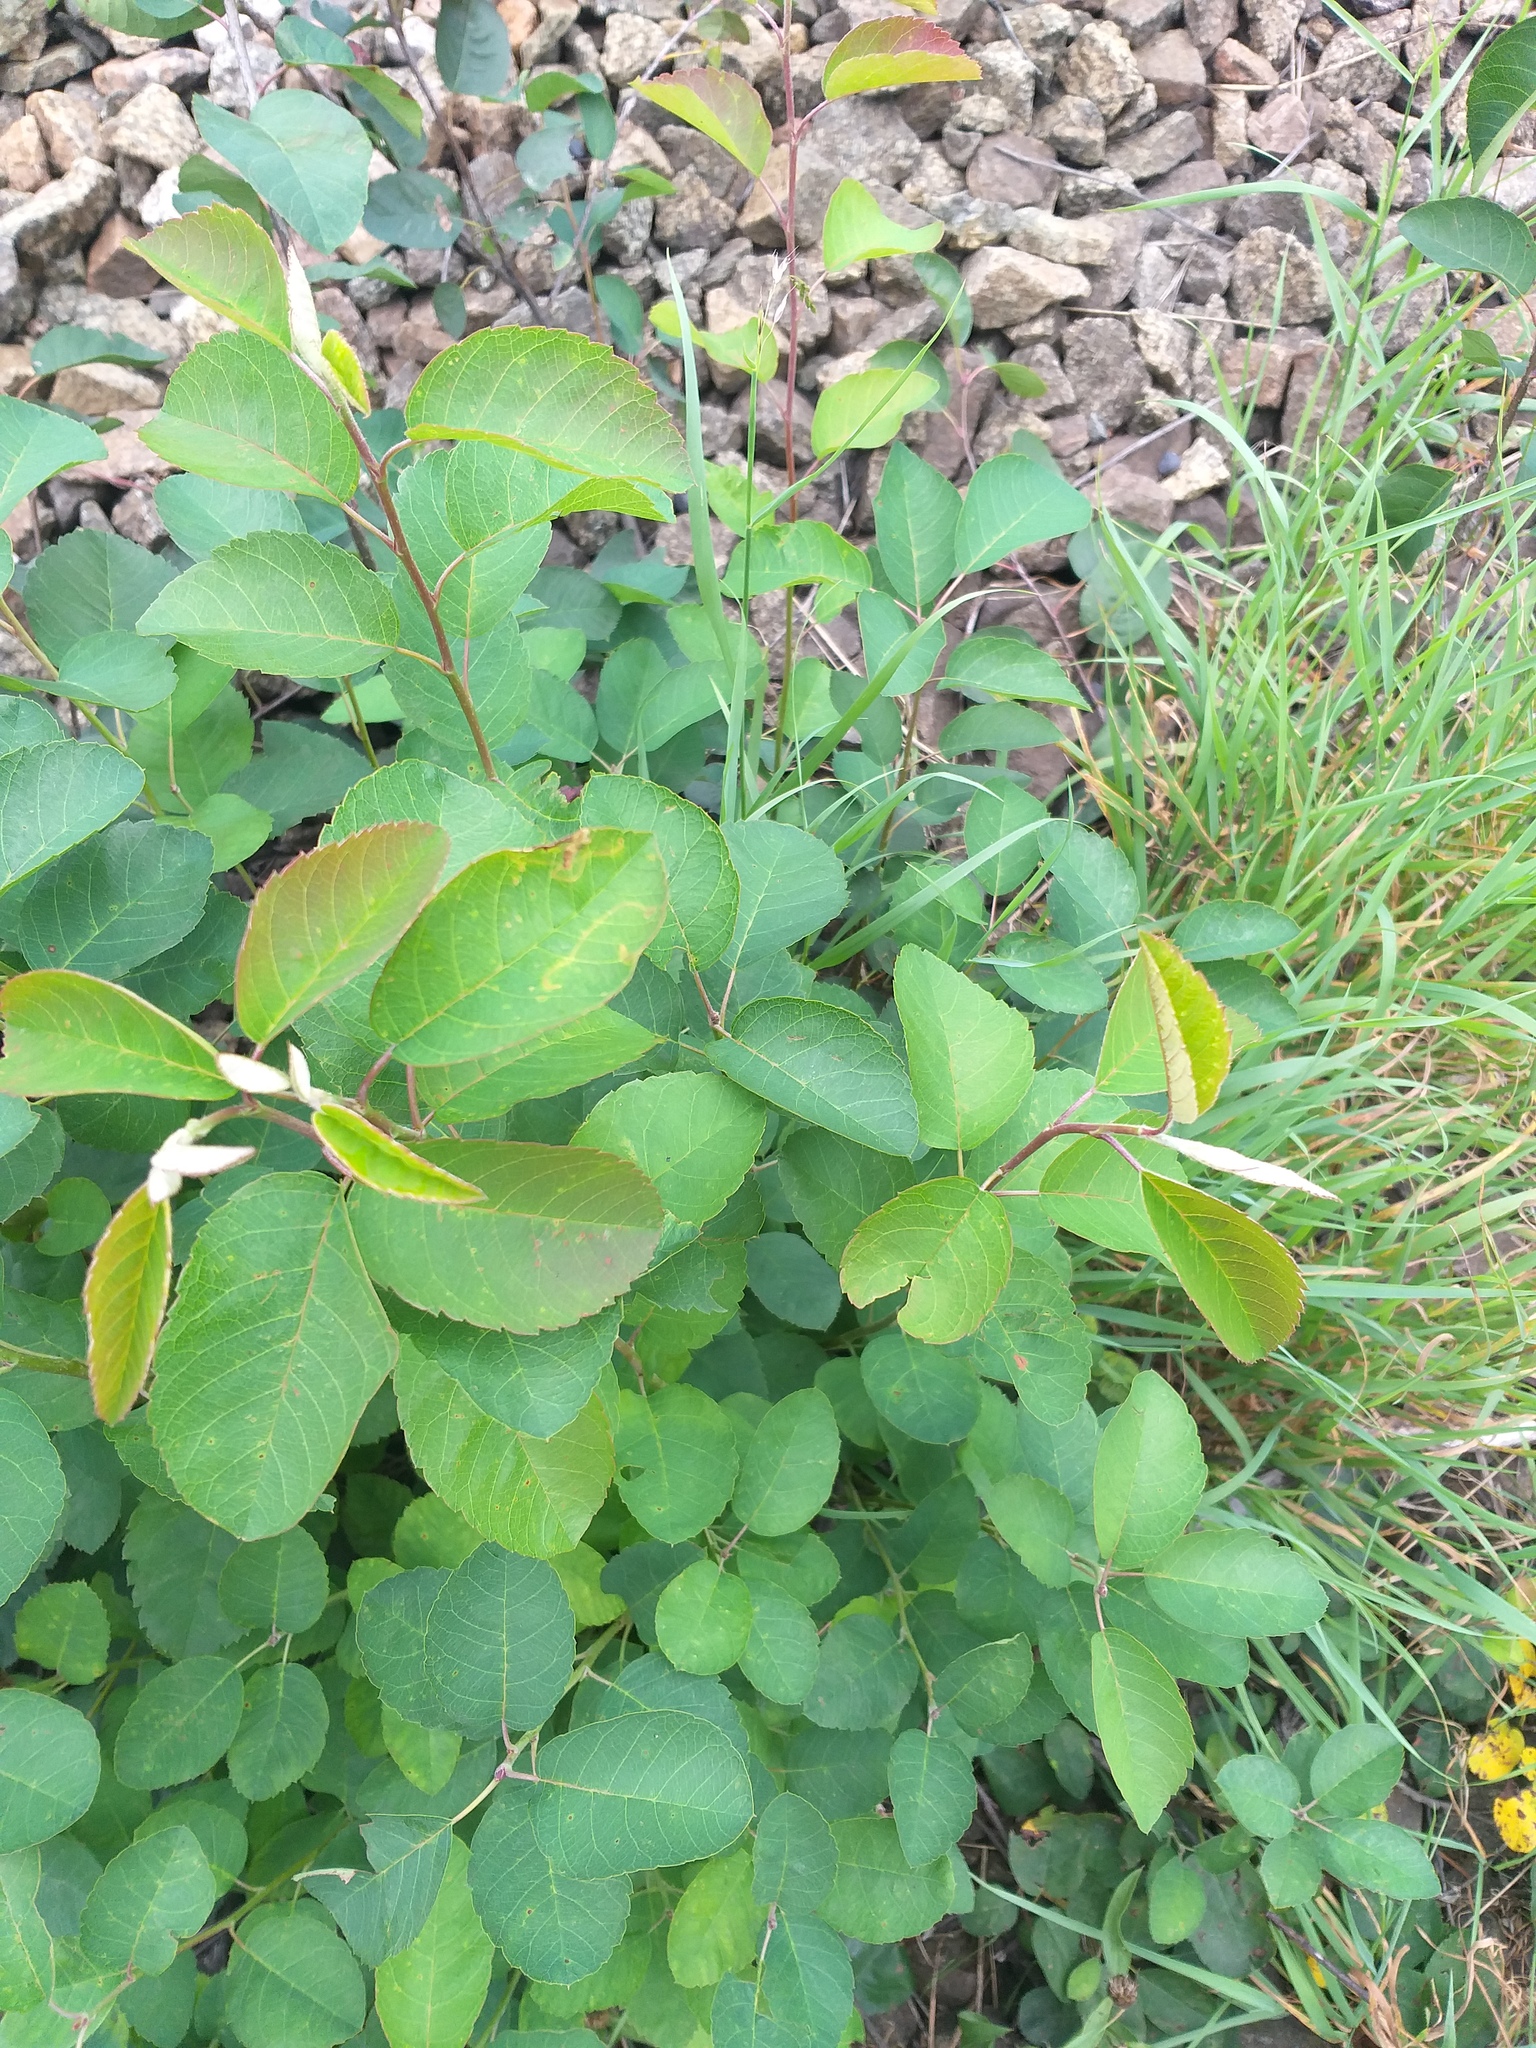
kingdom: Plantae
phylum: Tracheophyta
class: Magnoliopsida
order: Rosales
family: Rosaceae
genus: Amelanchier
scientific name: Amelanchier
